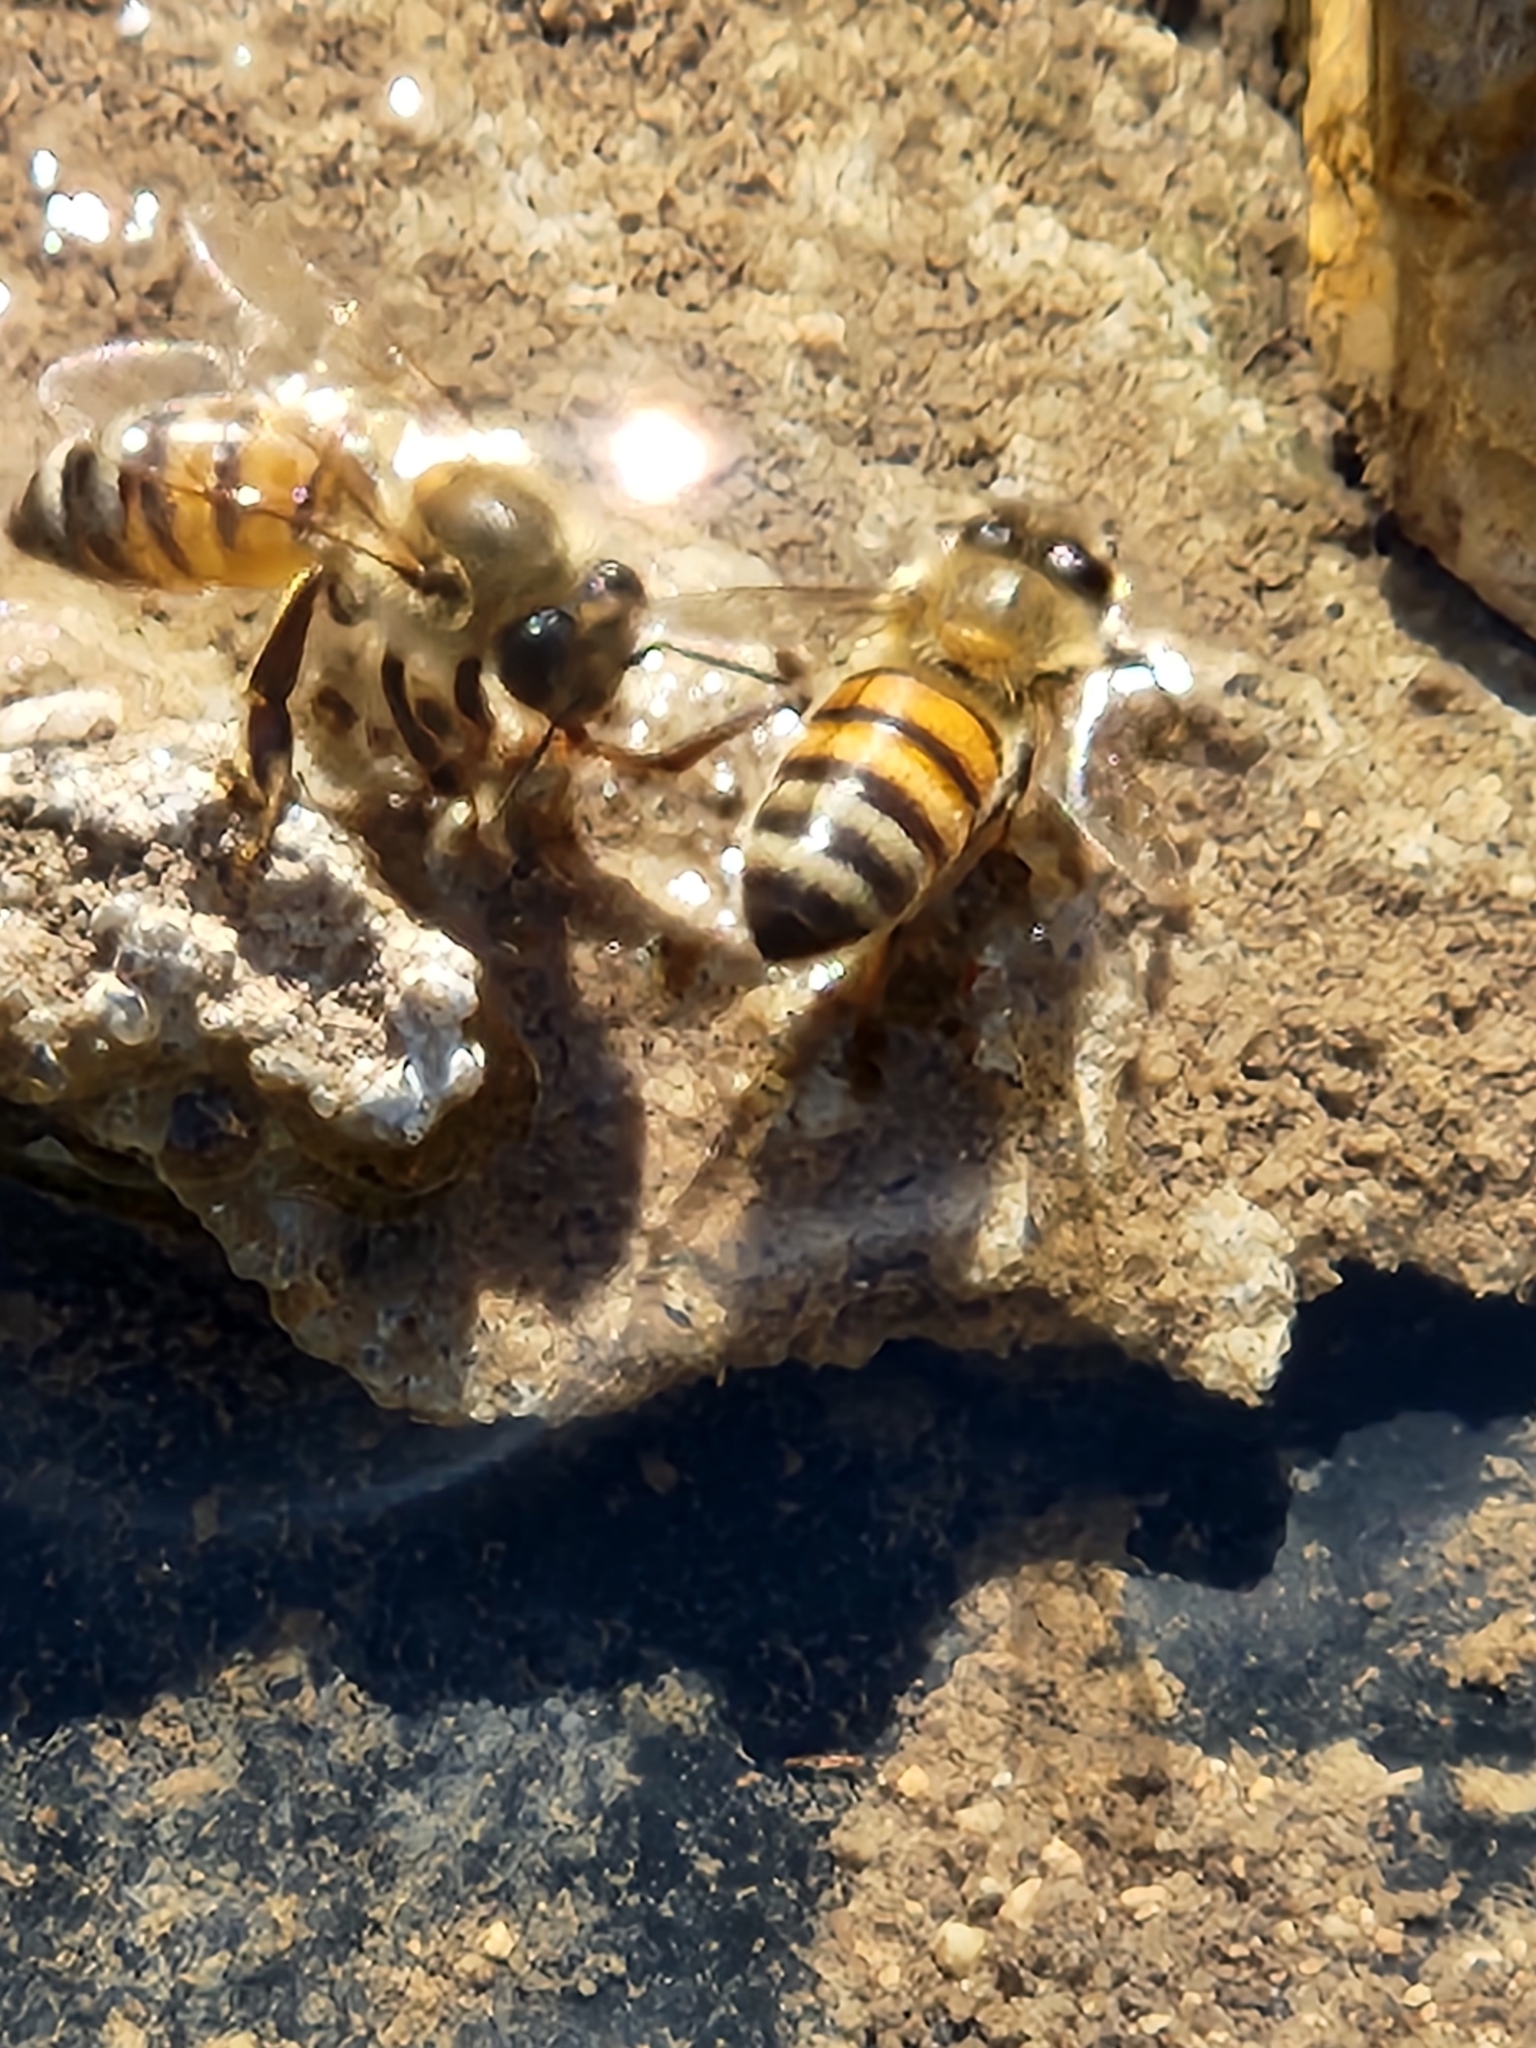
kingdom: Animalia
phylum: Arthropoda
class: Insecta
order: Hymenoptera
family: Apidae
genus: Apis
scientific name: Apis mellifera
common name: Honey bee
